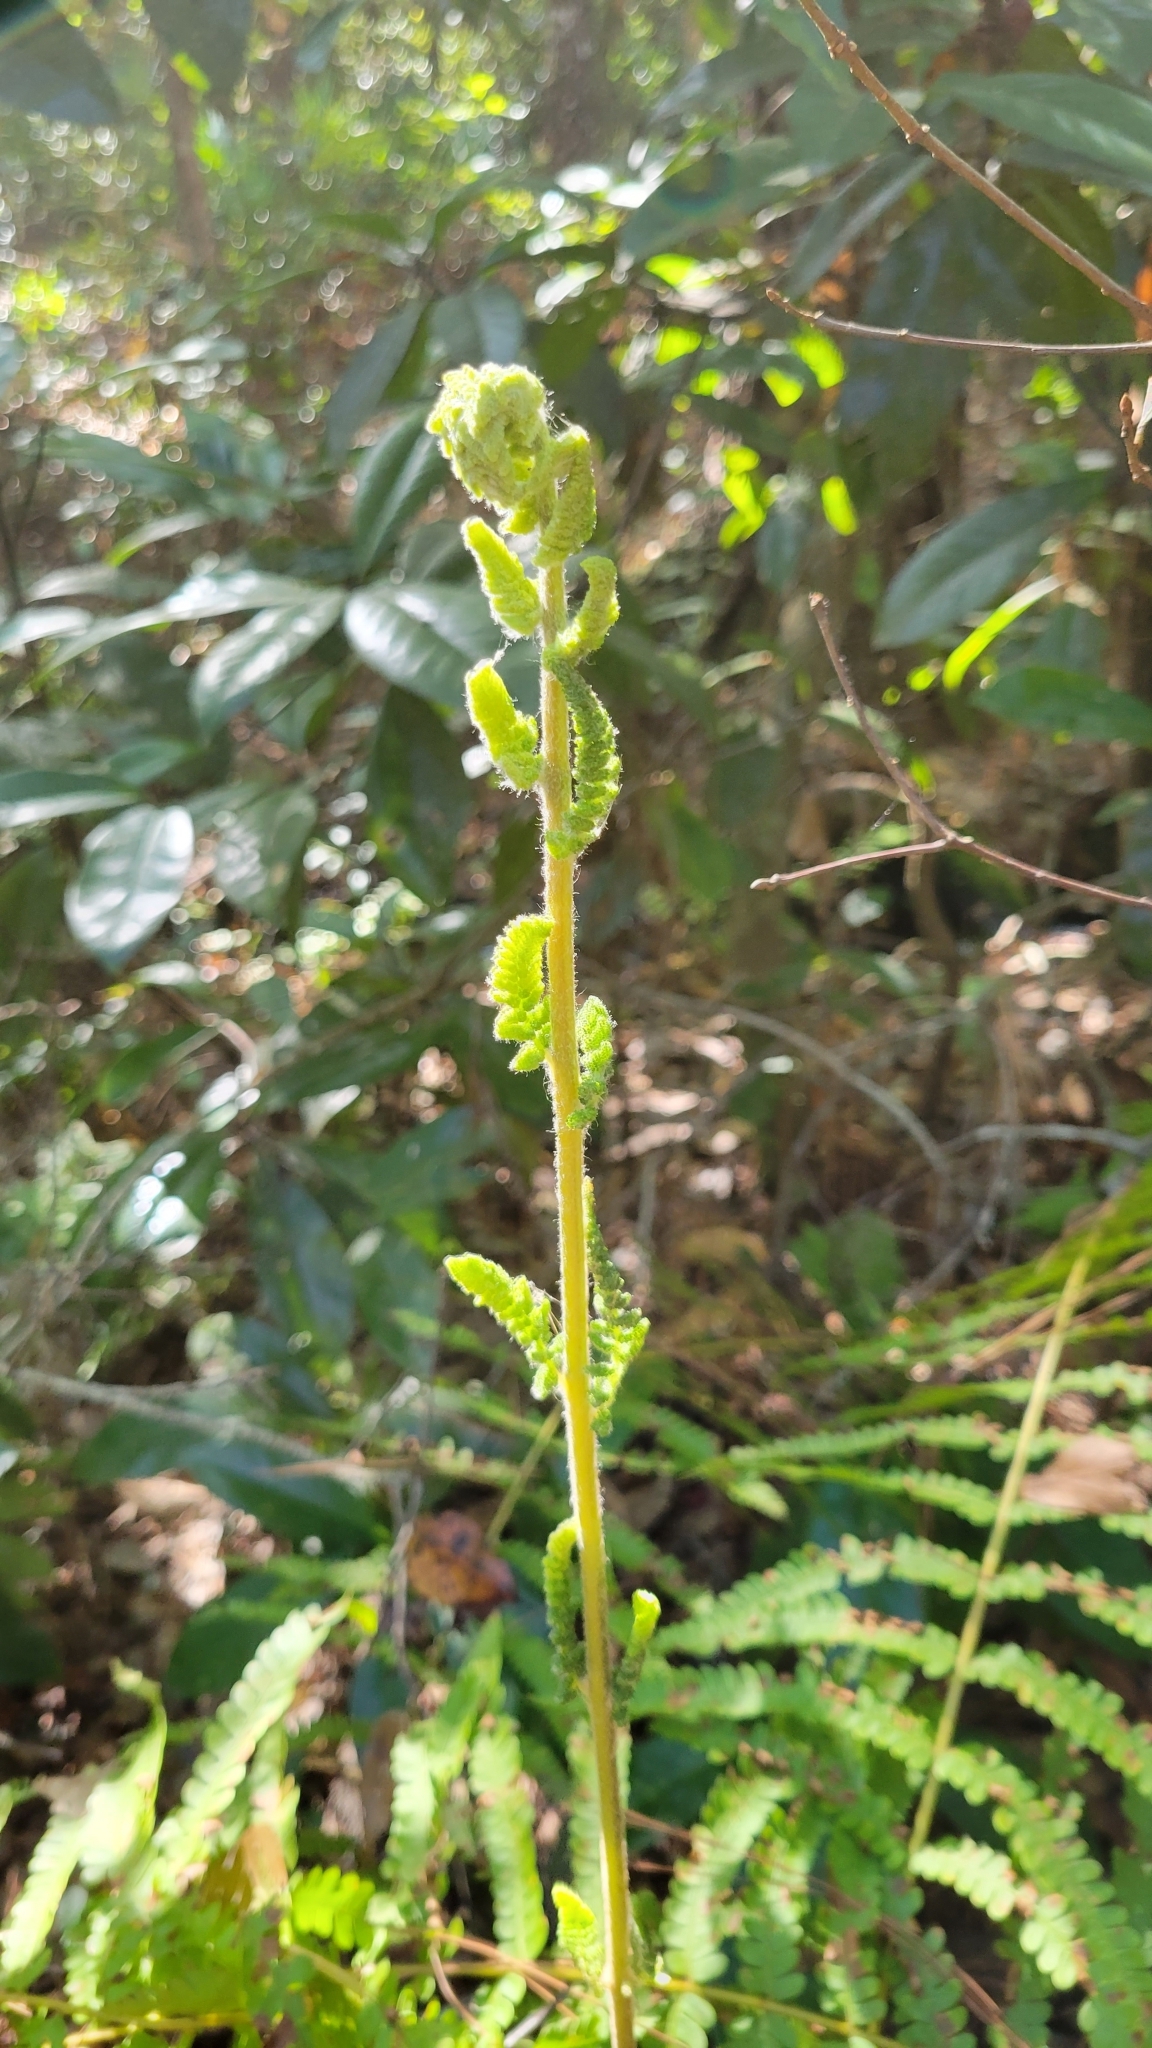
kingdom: Plantae
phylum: Tracheophyta
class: Polypodiopsida
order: Osmundales
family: Osmundaceae
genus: Osmundastrum
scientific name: Osmundastrum cinnamomeum
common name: Cinnamon fern
